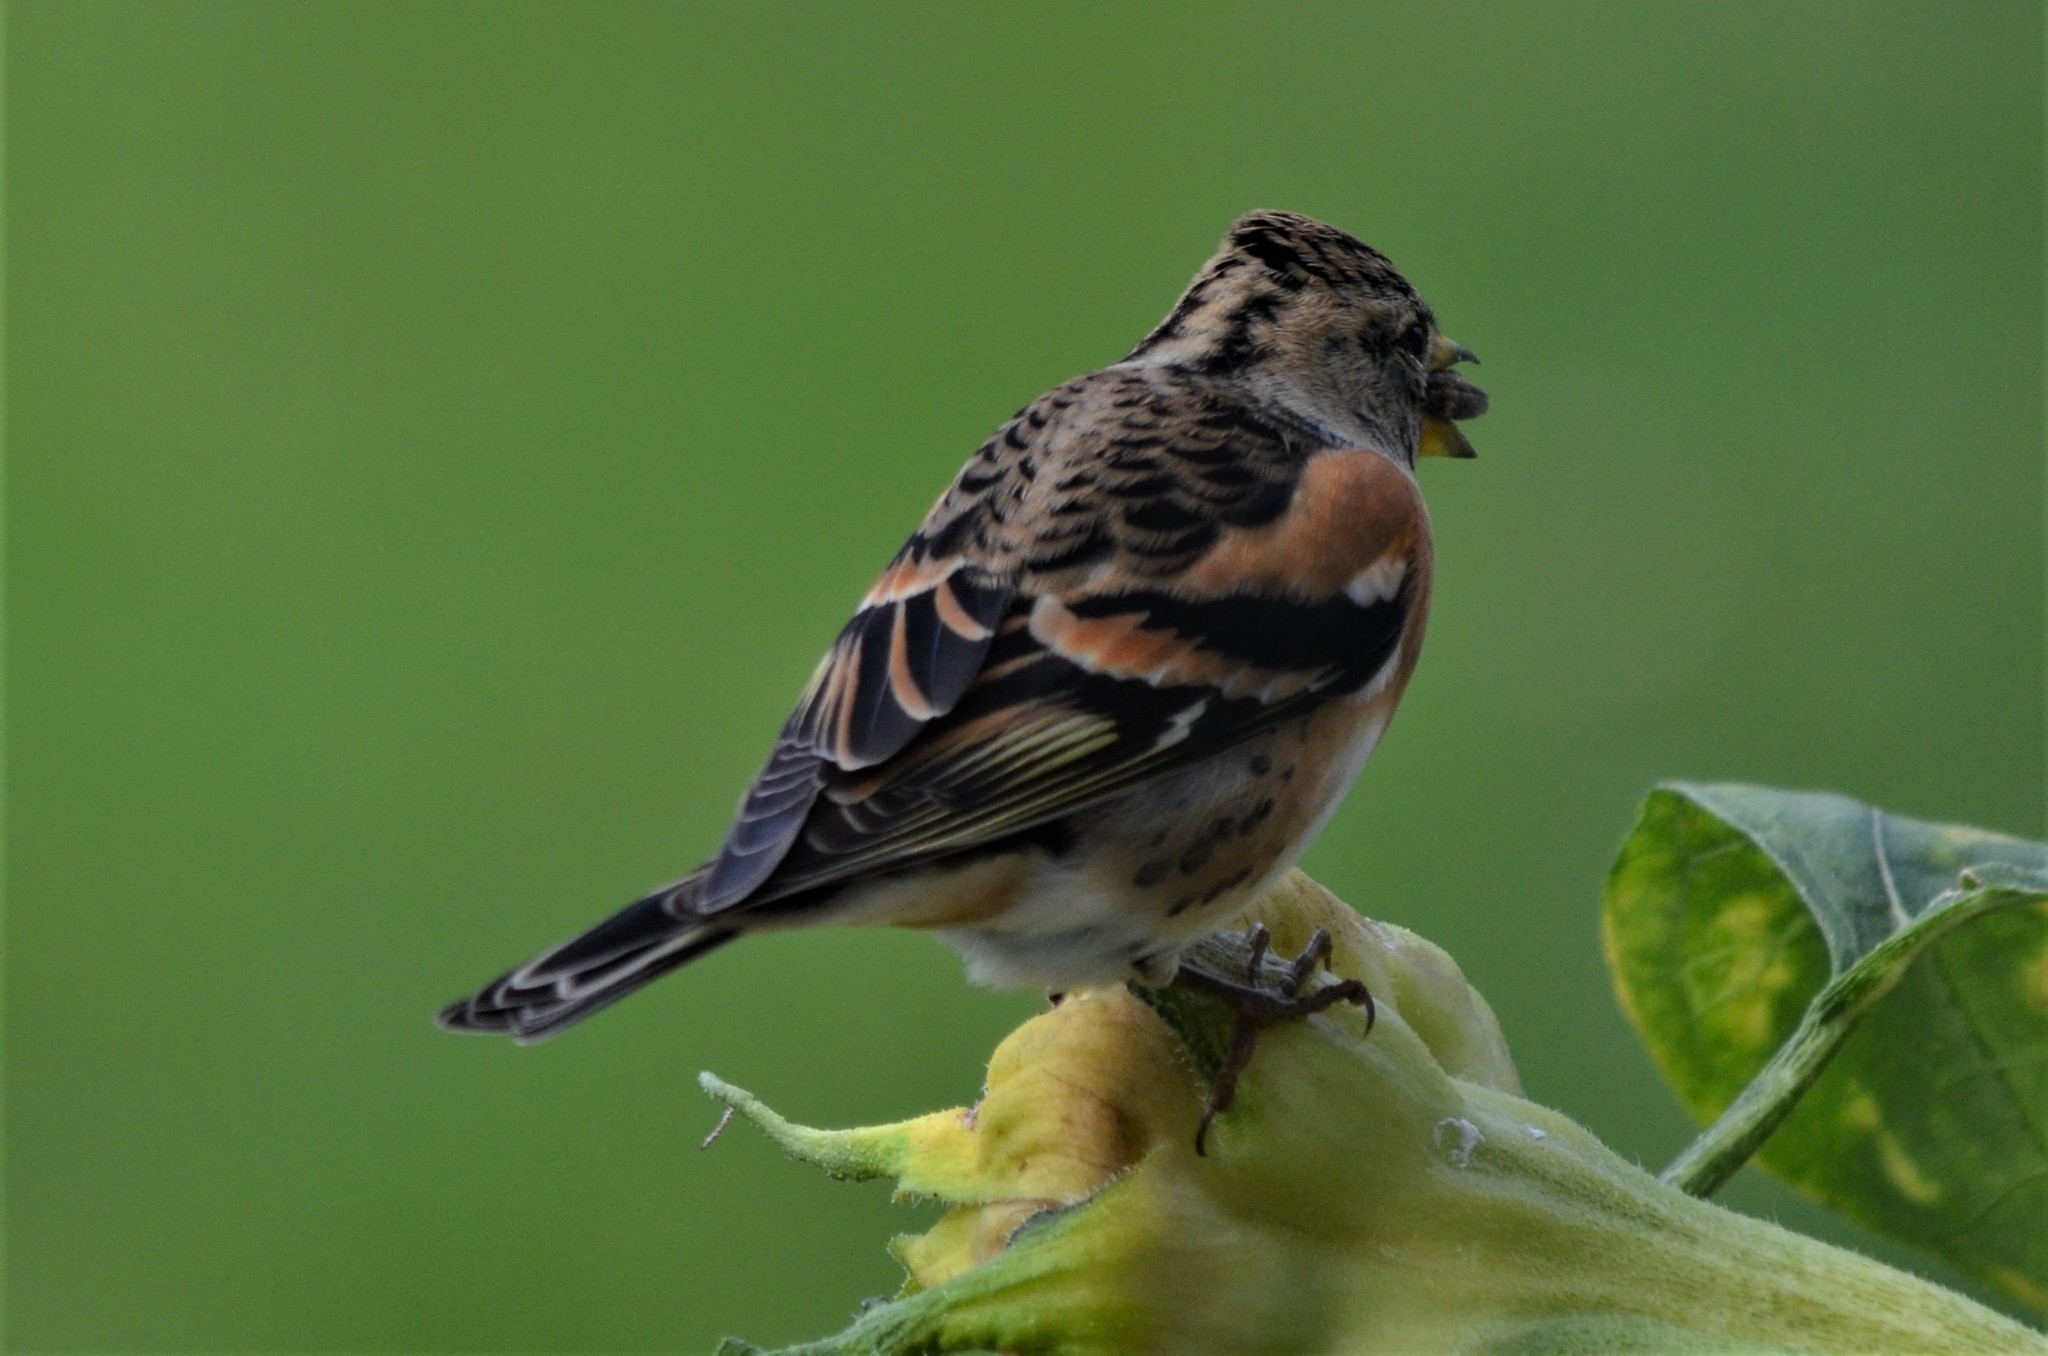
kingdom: Animalia
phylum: Chordata
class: Aves
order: Passeriformes
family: Fringillidae
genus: Fringilla
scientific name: Fringilla montifringilla
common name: Brambling
